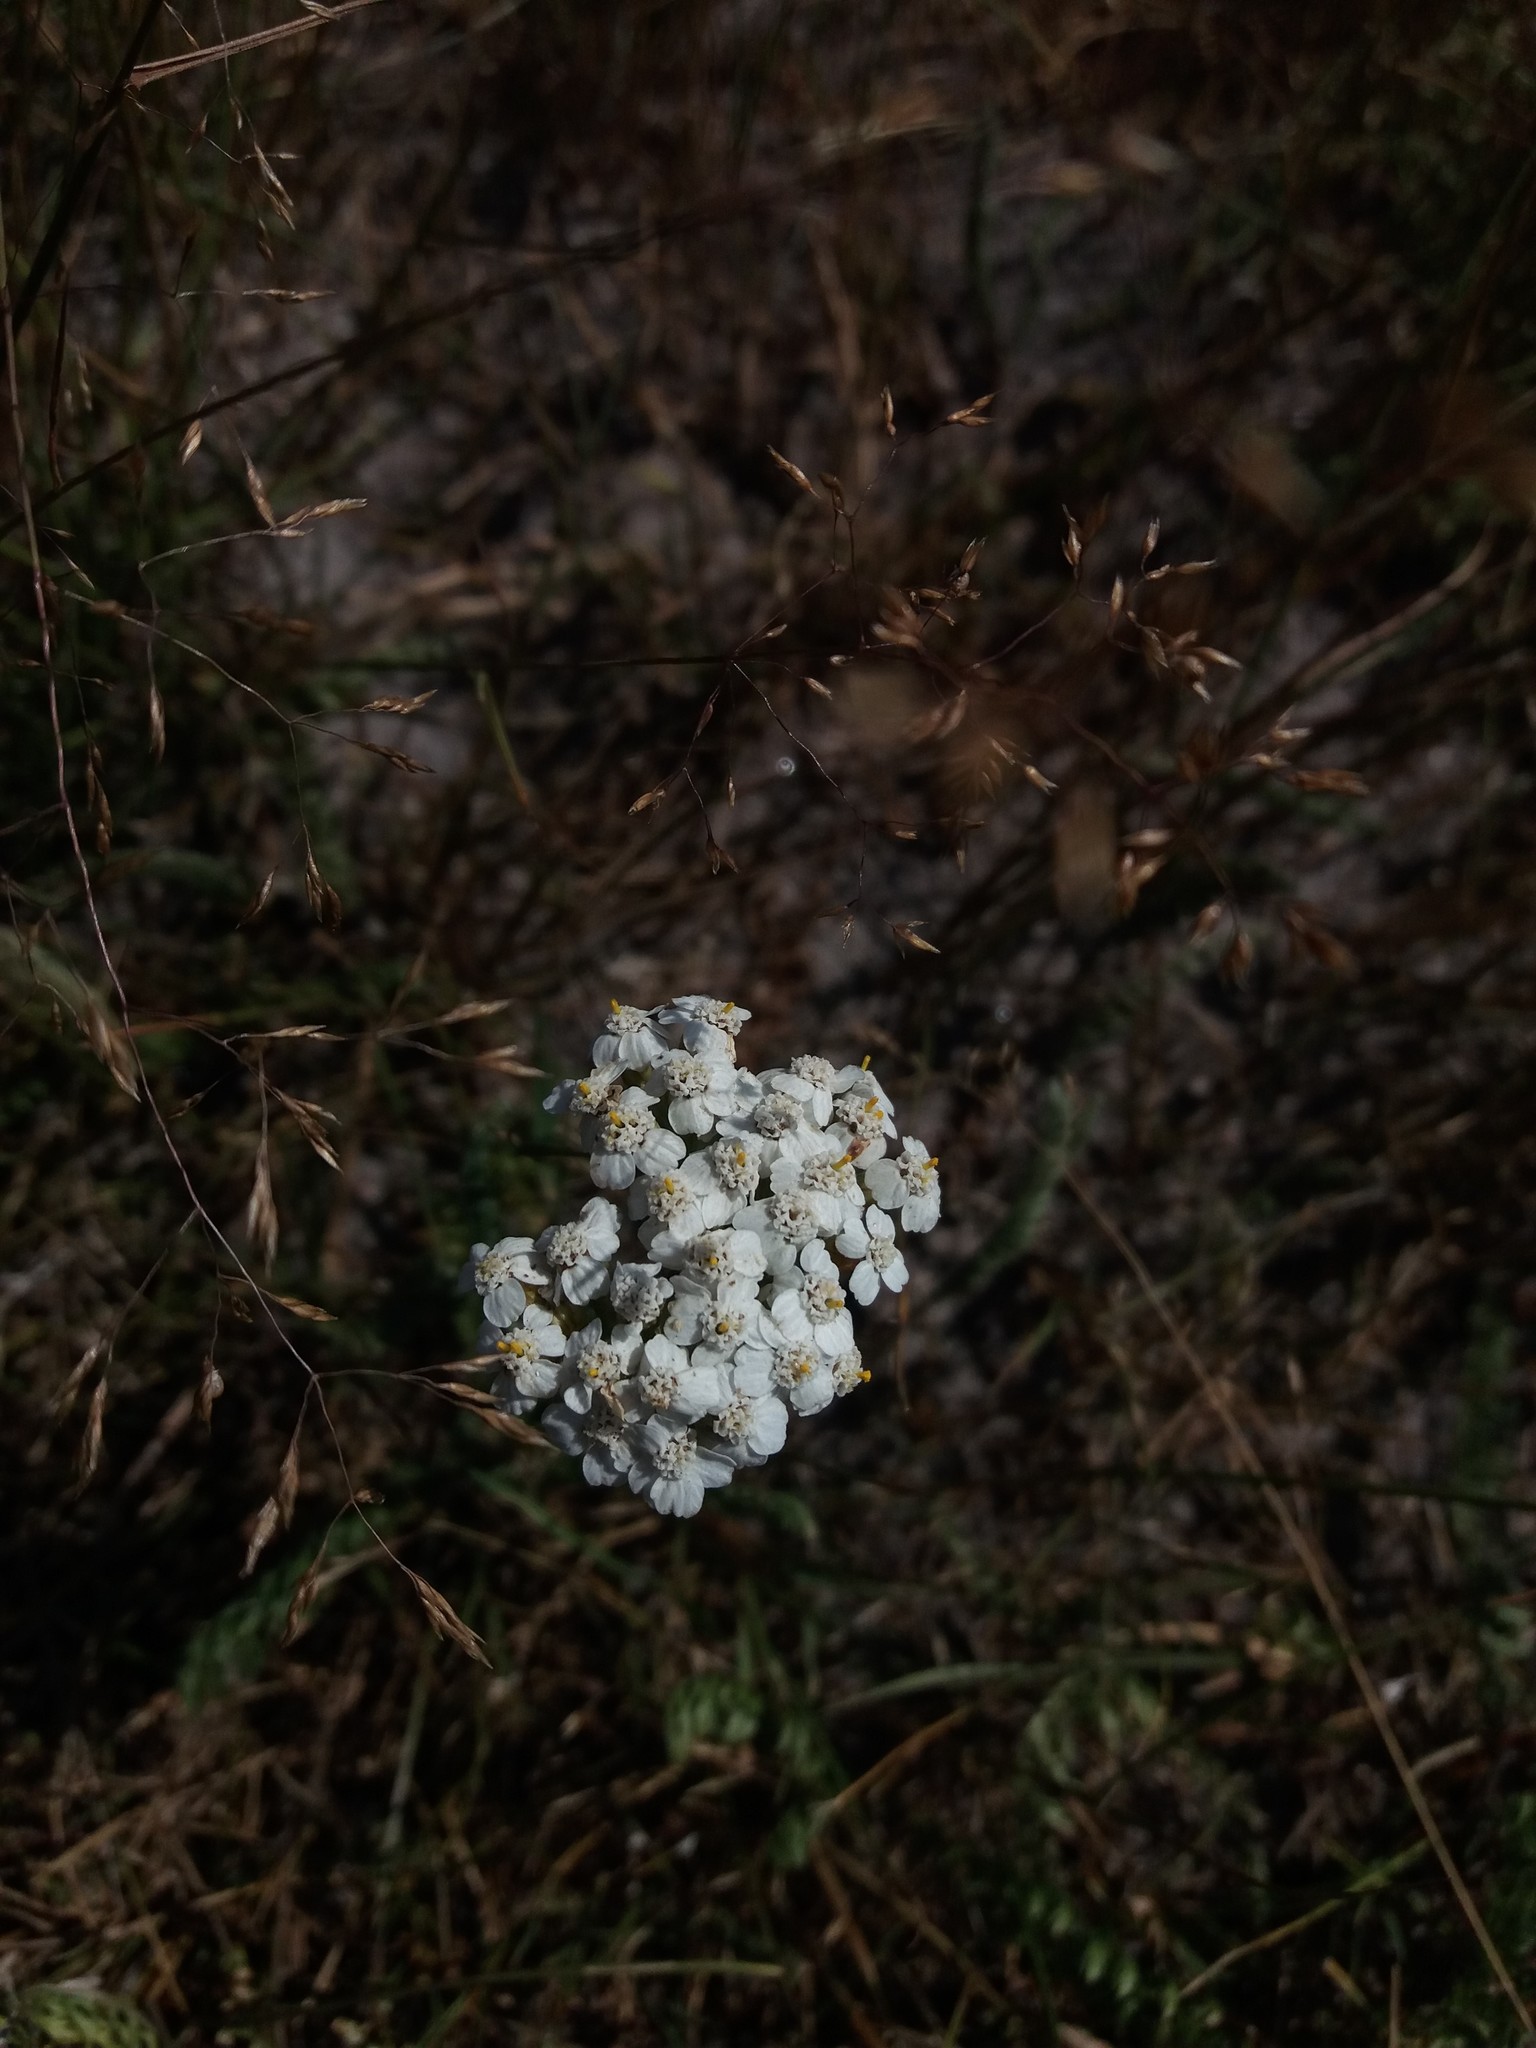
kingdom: Plantae
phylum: Tracheophyta
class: Magnoliopsida
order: Asterales
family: Asteraceae
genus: Achillea
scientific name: Achillea millefolium
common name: Yarrow
